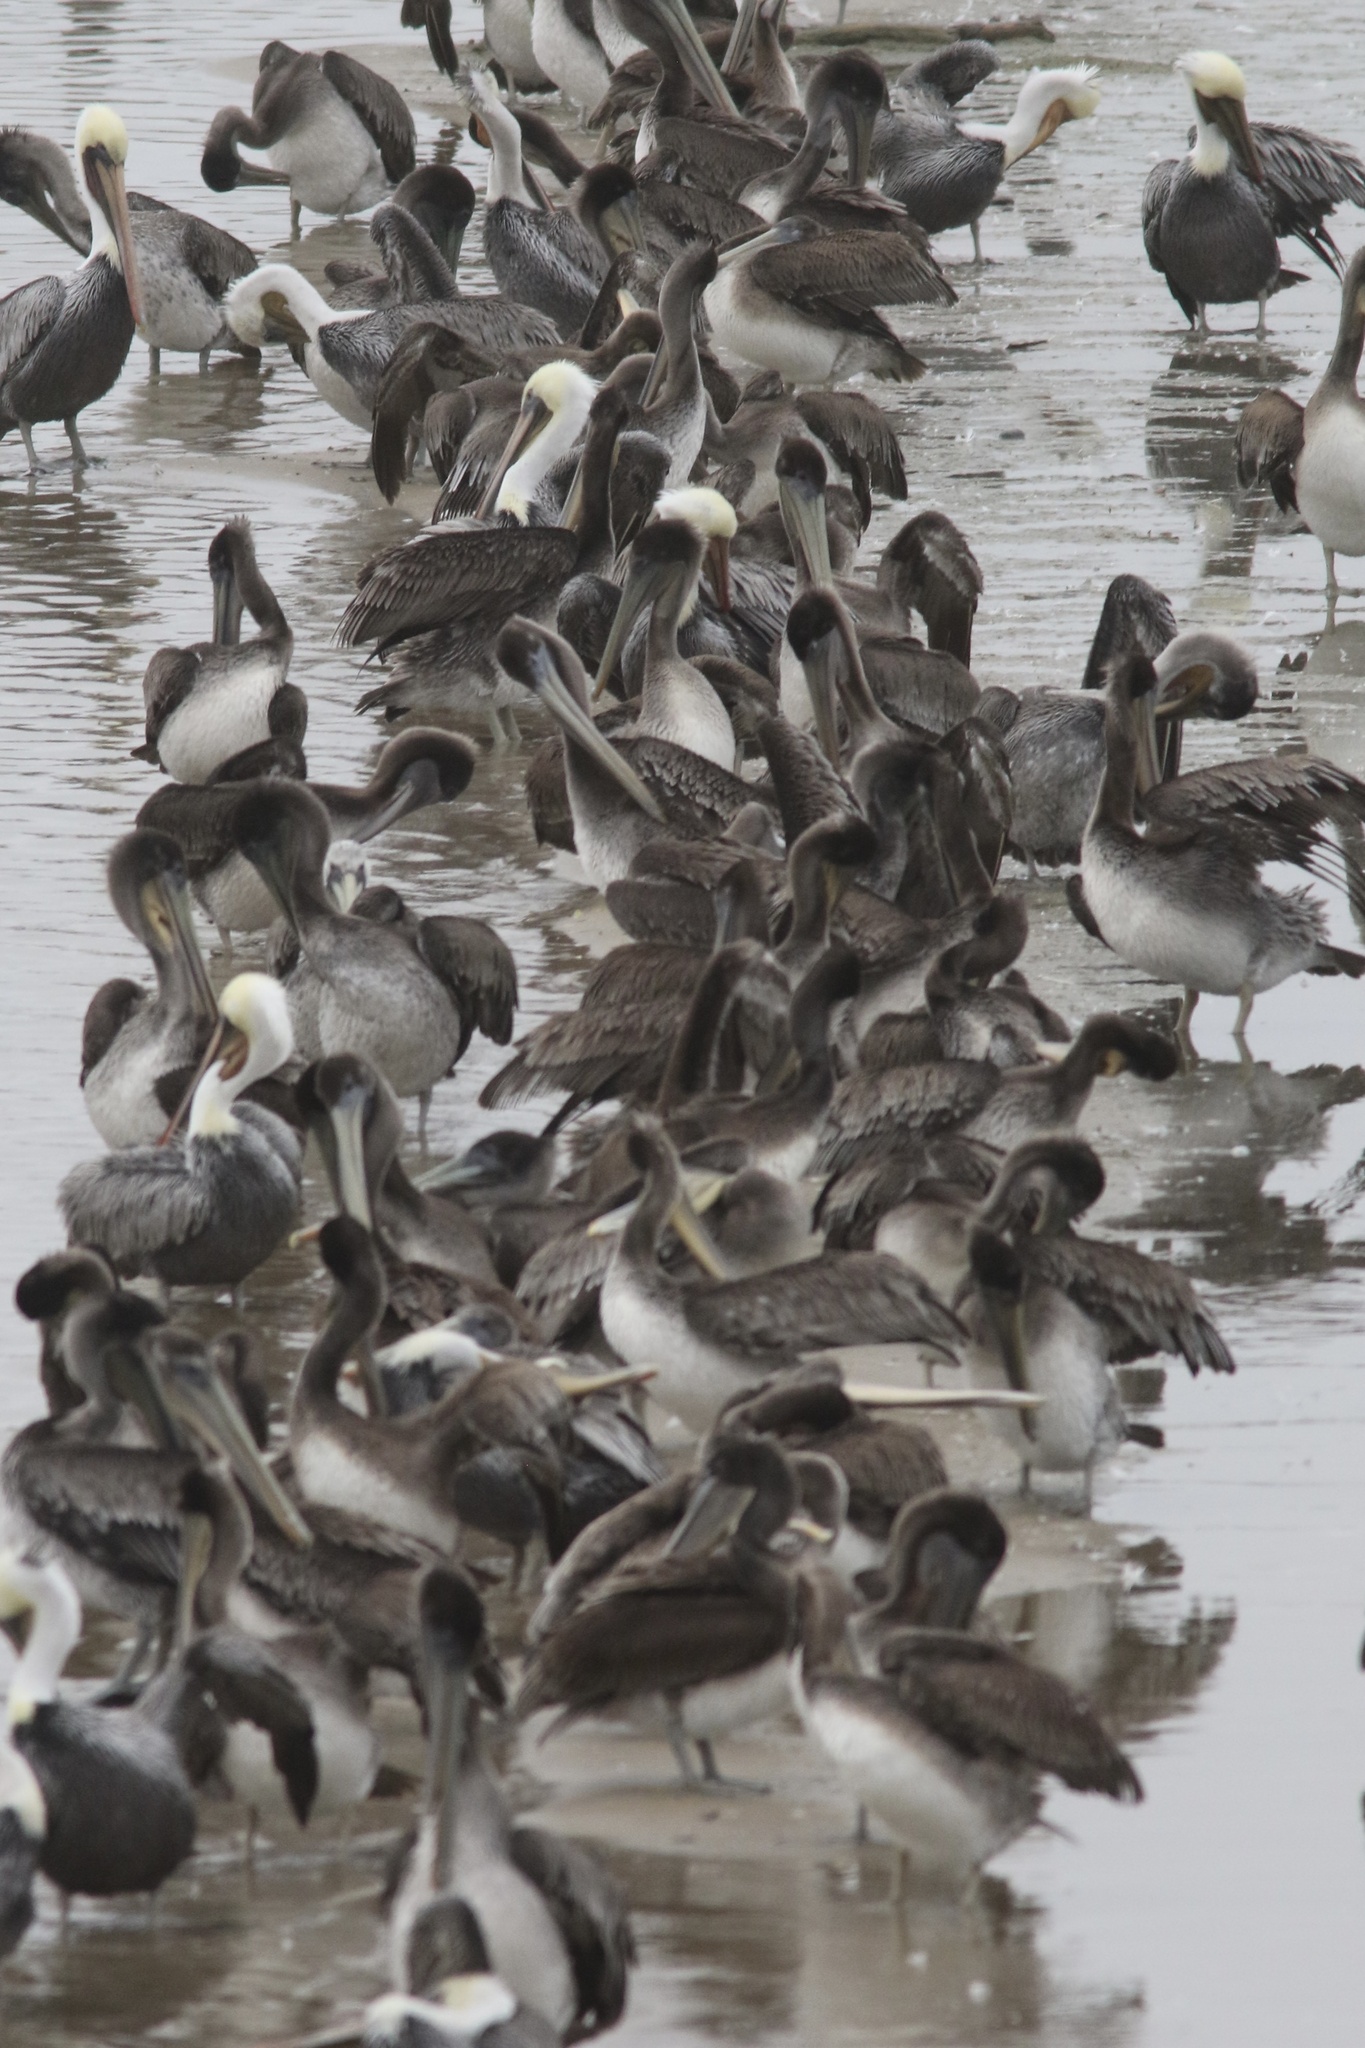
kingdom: Animalia
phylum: Chordata
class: Aves
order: Pelecaniformes
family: Pelecanidae
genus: Pelecanus
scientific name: Pelecanus occidentalis
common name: Brown pelican
